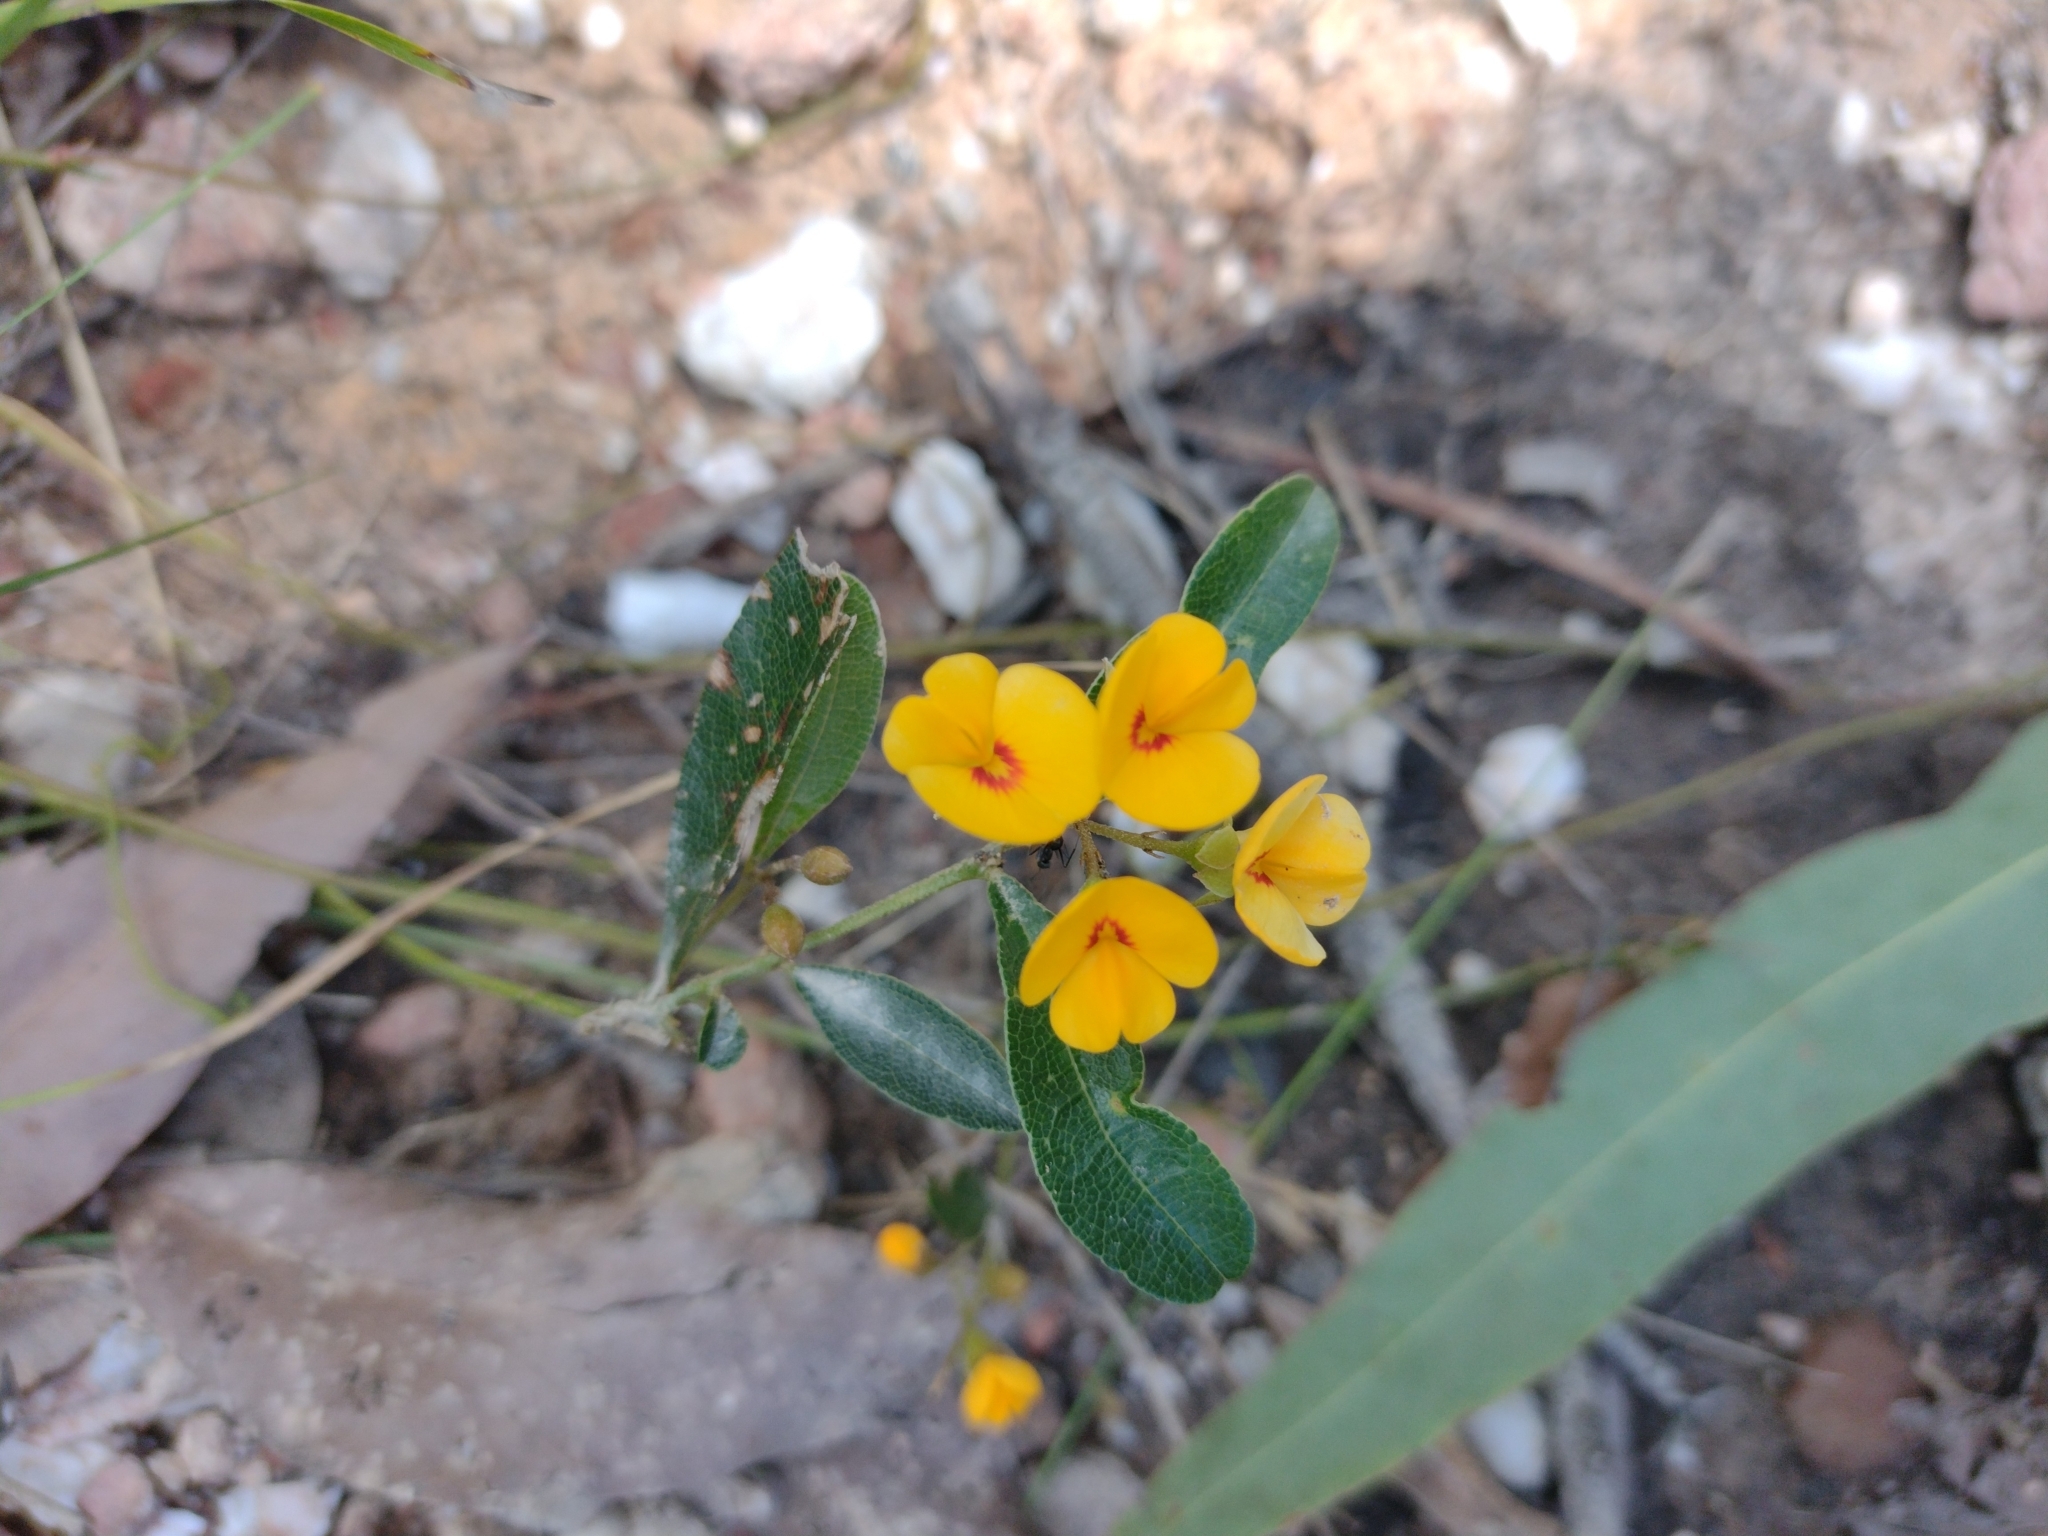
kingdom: Plantae
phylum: Tracheophyta
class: Magnoliopsida
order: Fabales
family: Fabaceae
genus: Podolobium
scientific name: Podolobium scandens
